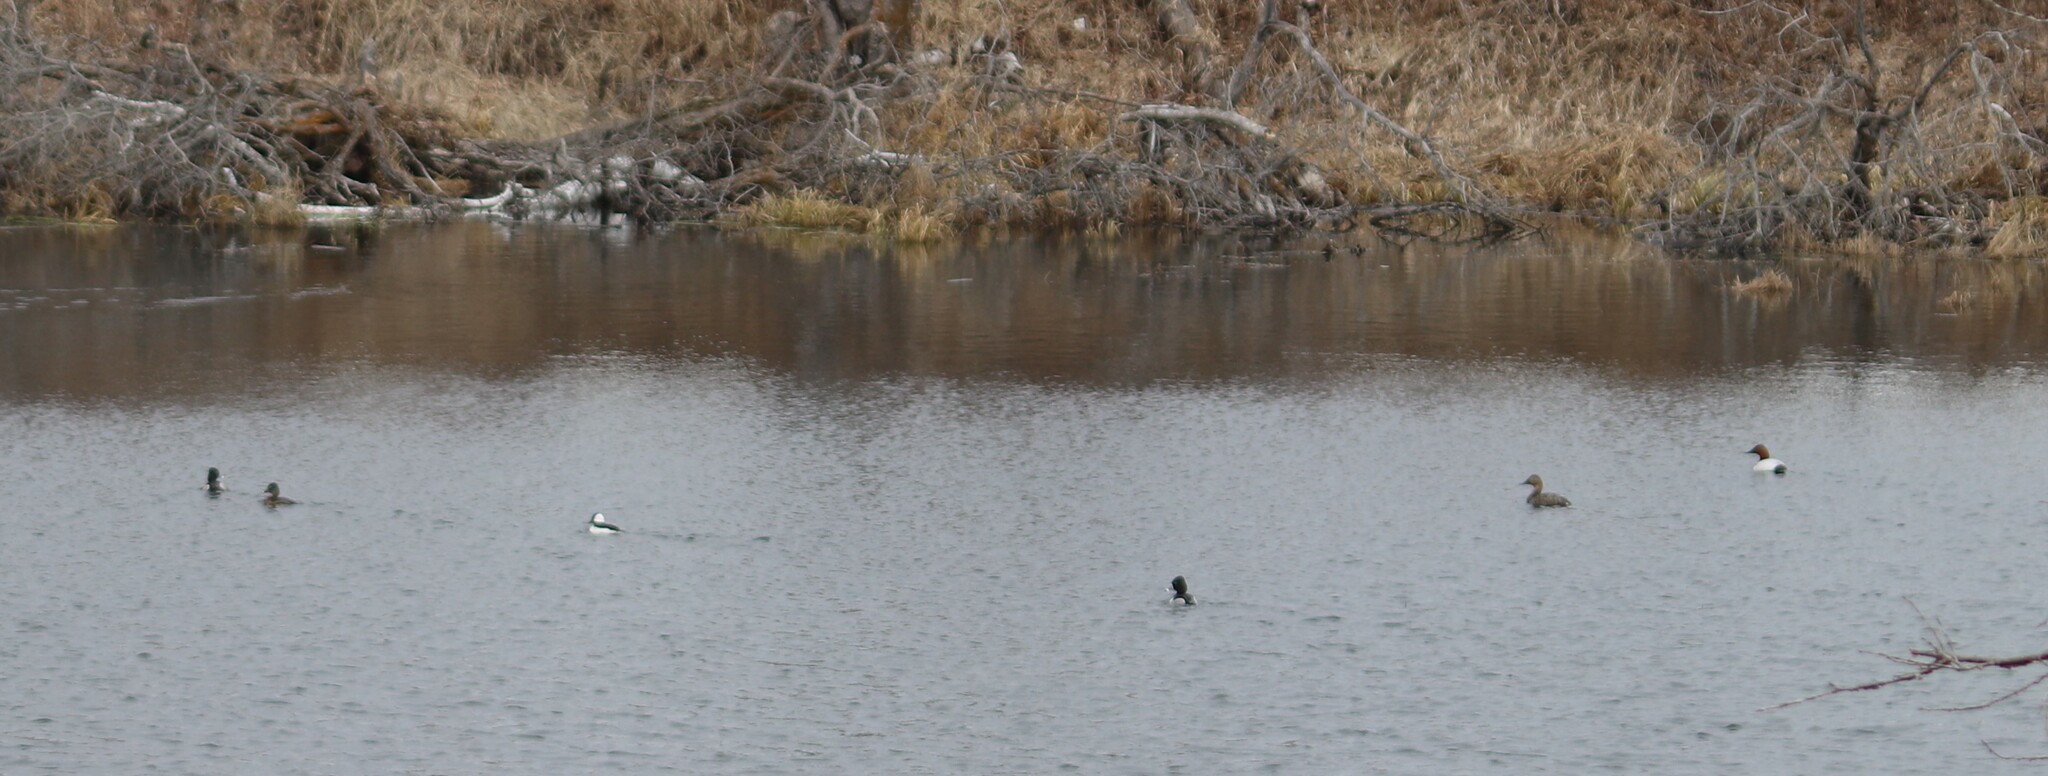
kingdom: Animalia
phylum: Chordata
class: Aves
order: Anseriformes
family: Anatidae
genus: Bucephala
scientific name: Bucephala albeola
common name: Bufflehead
